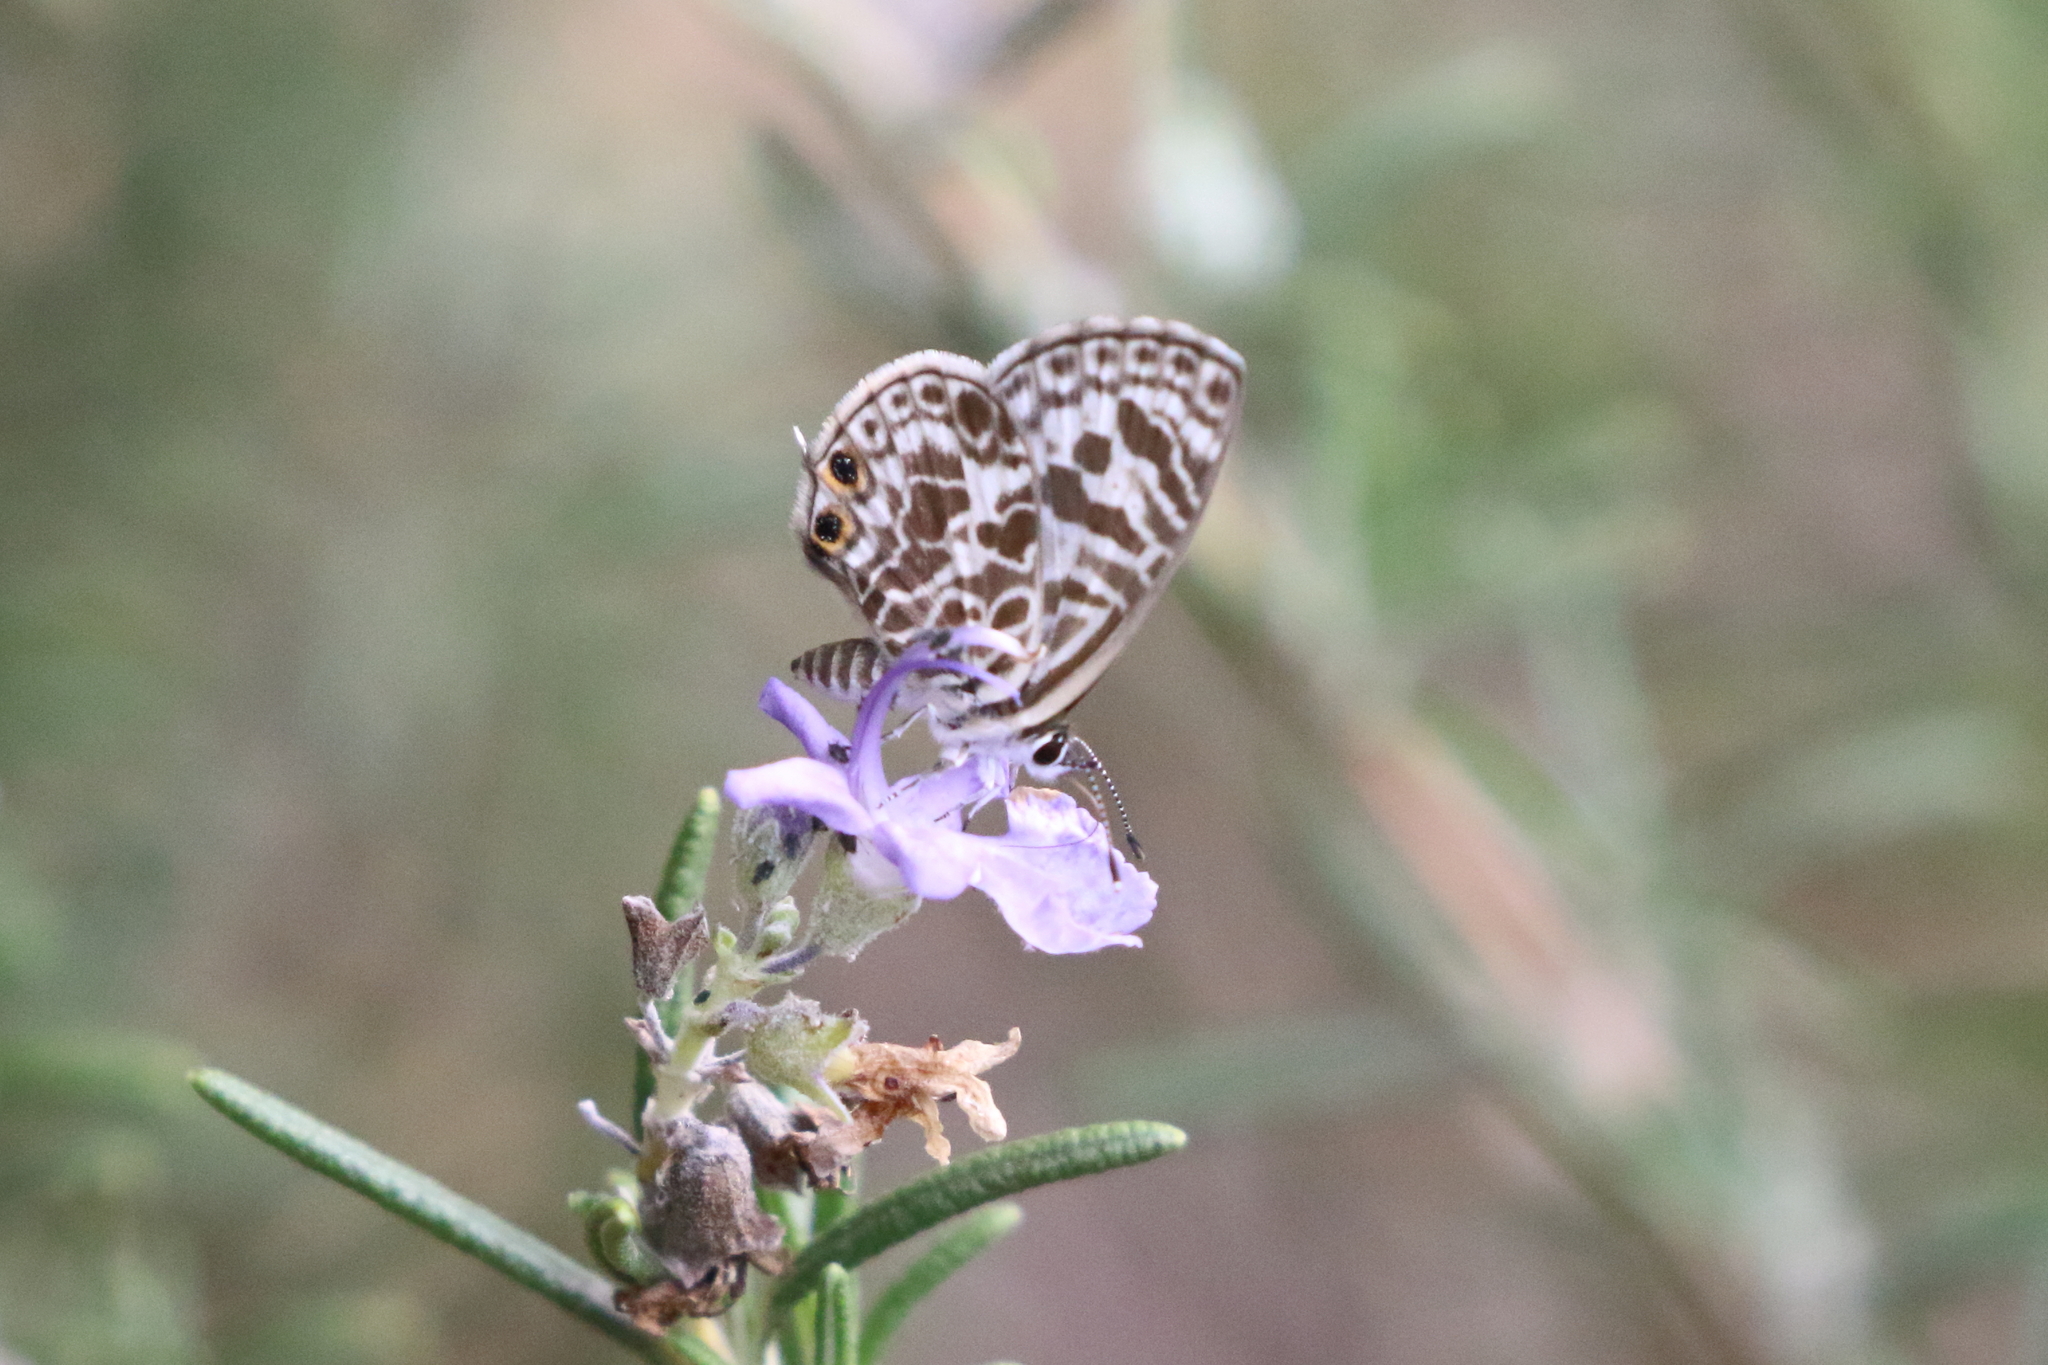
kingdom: Animalia
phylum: Arthropoda
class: Insecta
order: Lepidoptera
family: Lycaenidae
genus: Leptotes
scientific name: Leptotes plinius
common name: Zebra blue
